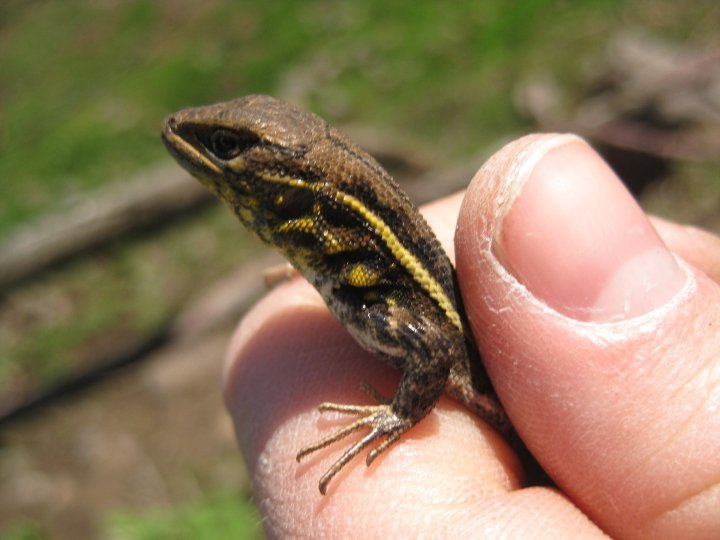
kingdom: Animalia
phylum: Chordata
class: Squamata
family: Tropiduridae
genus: Stenocercus
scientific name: Stenocercus ornatissimus
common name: Lesser ornate whorltail iguana
